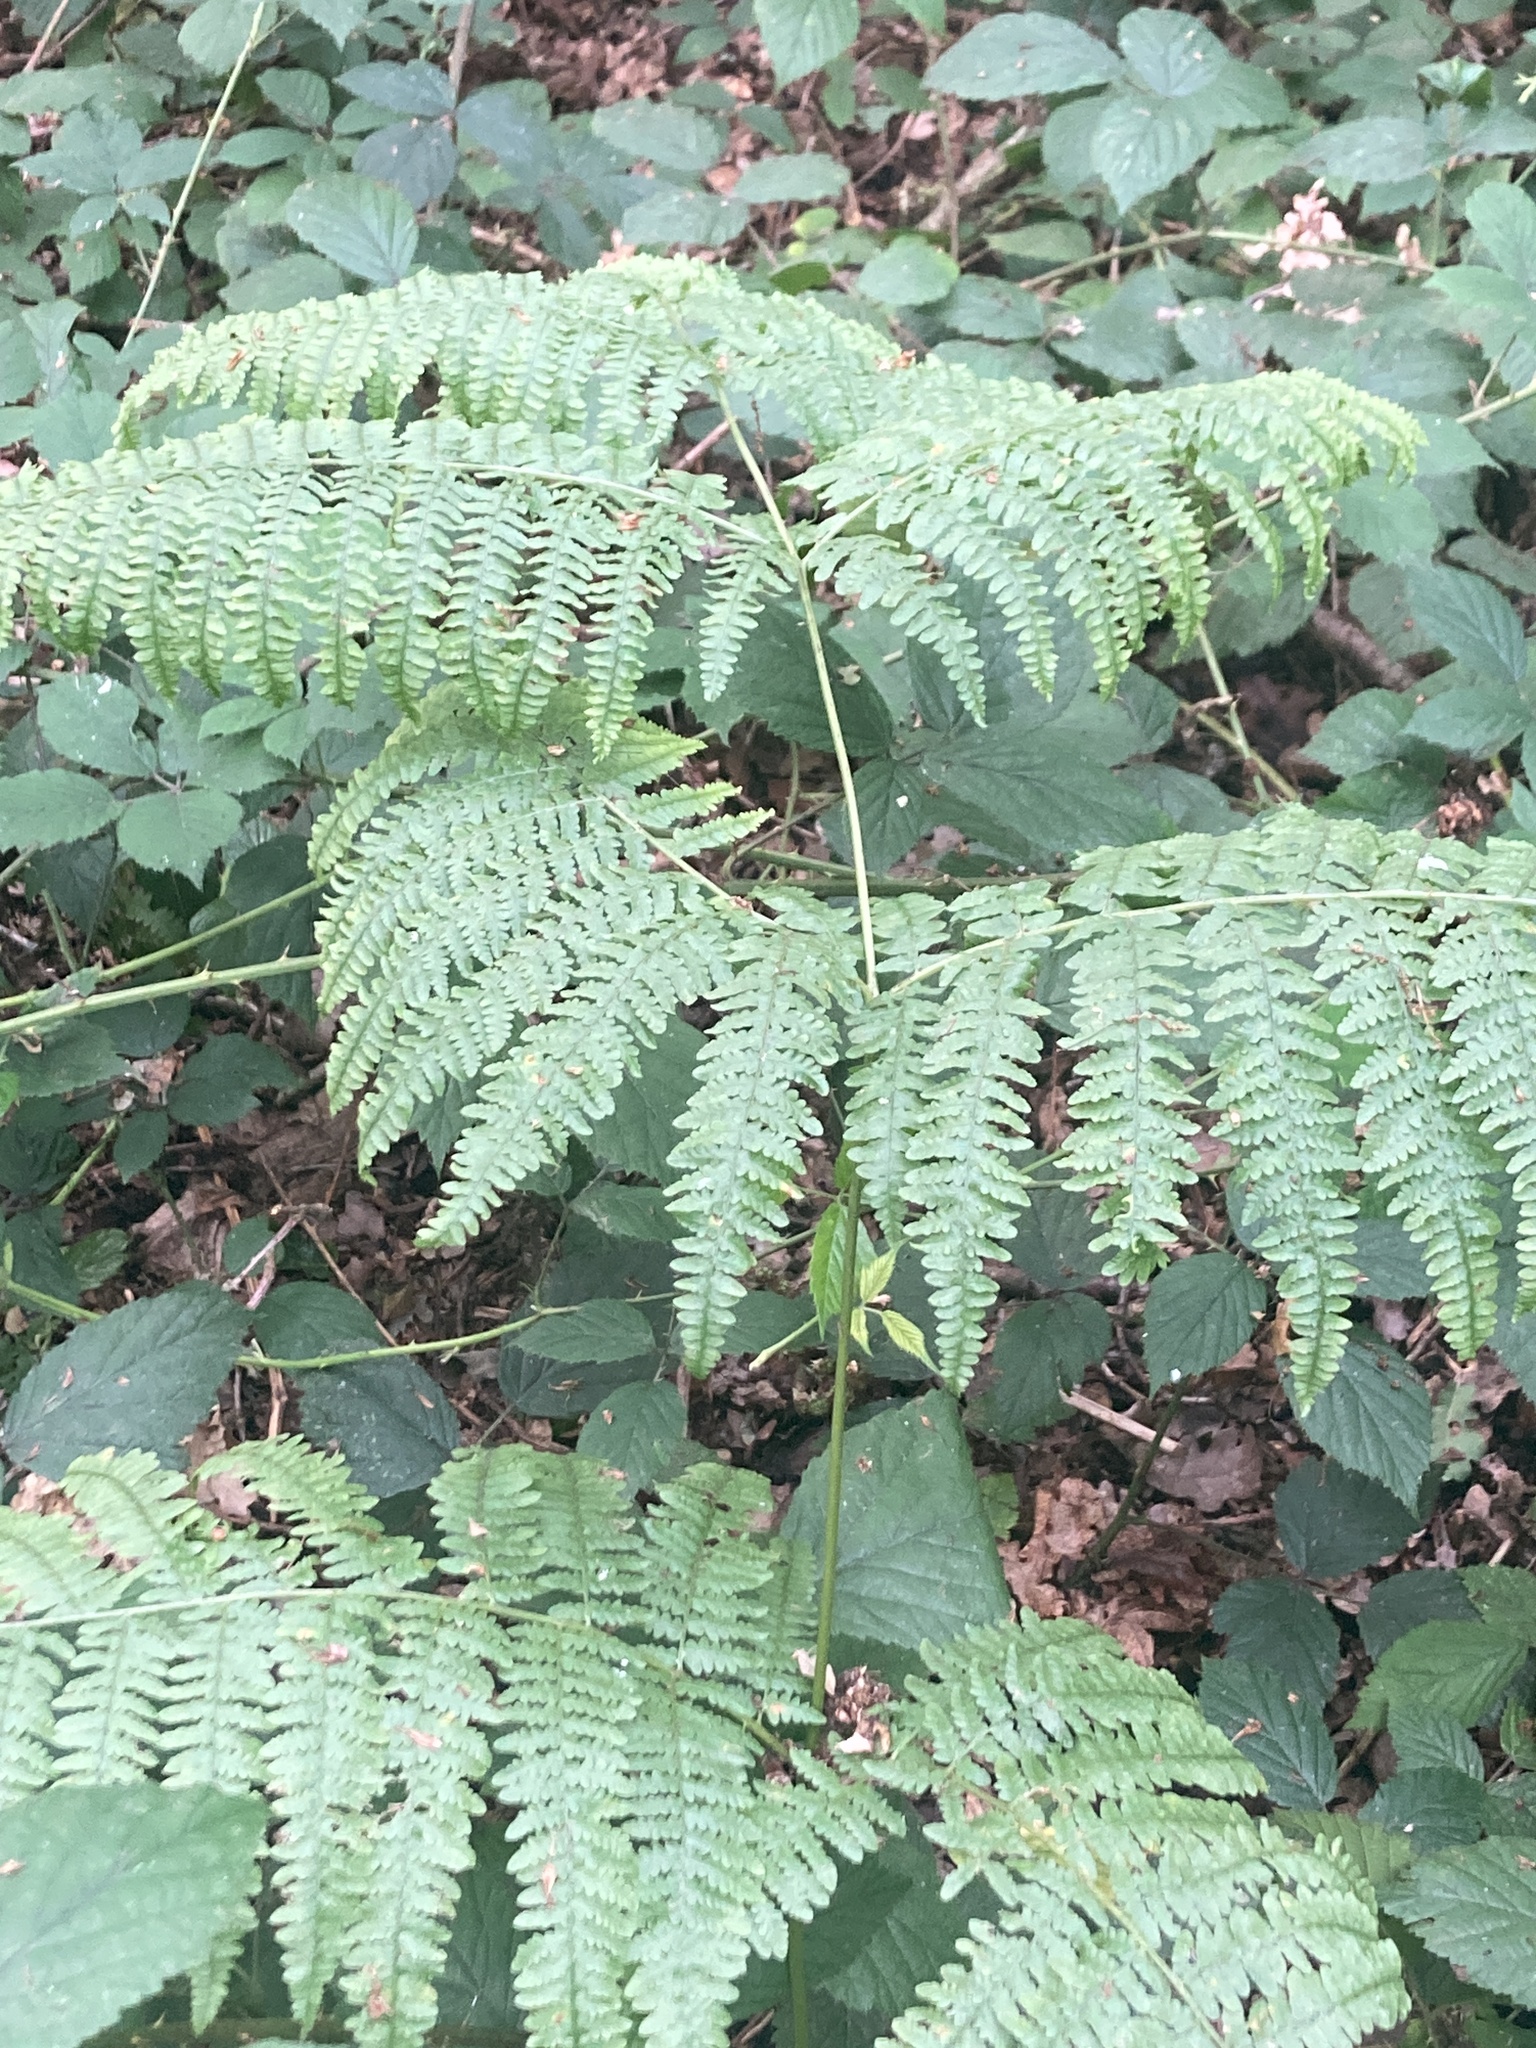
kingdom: Plantae
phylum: Tracheophyta
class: Polypodiopsida
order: Polypodiales
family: Dennstaedtiaceae
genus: Pteridium
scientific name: Pteridium aquilinum
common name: Bracken
